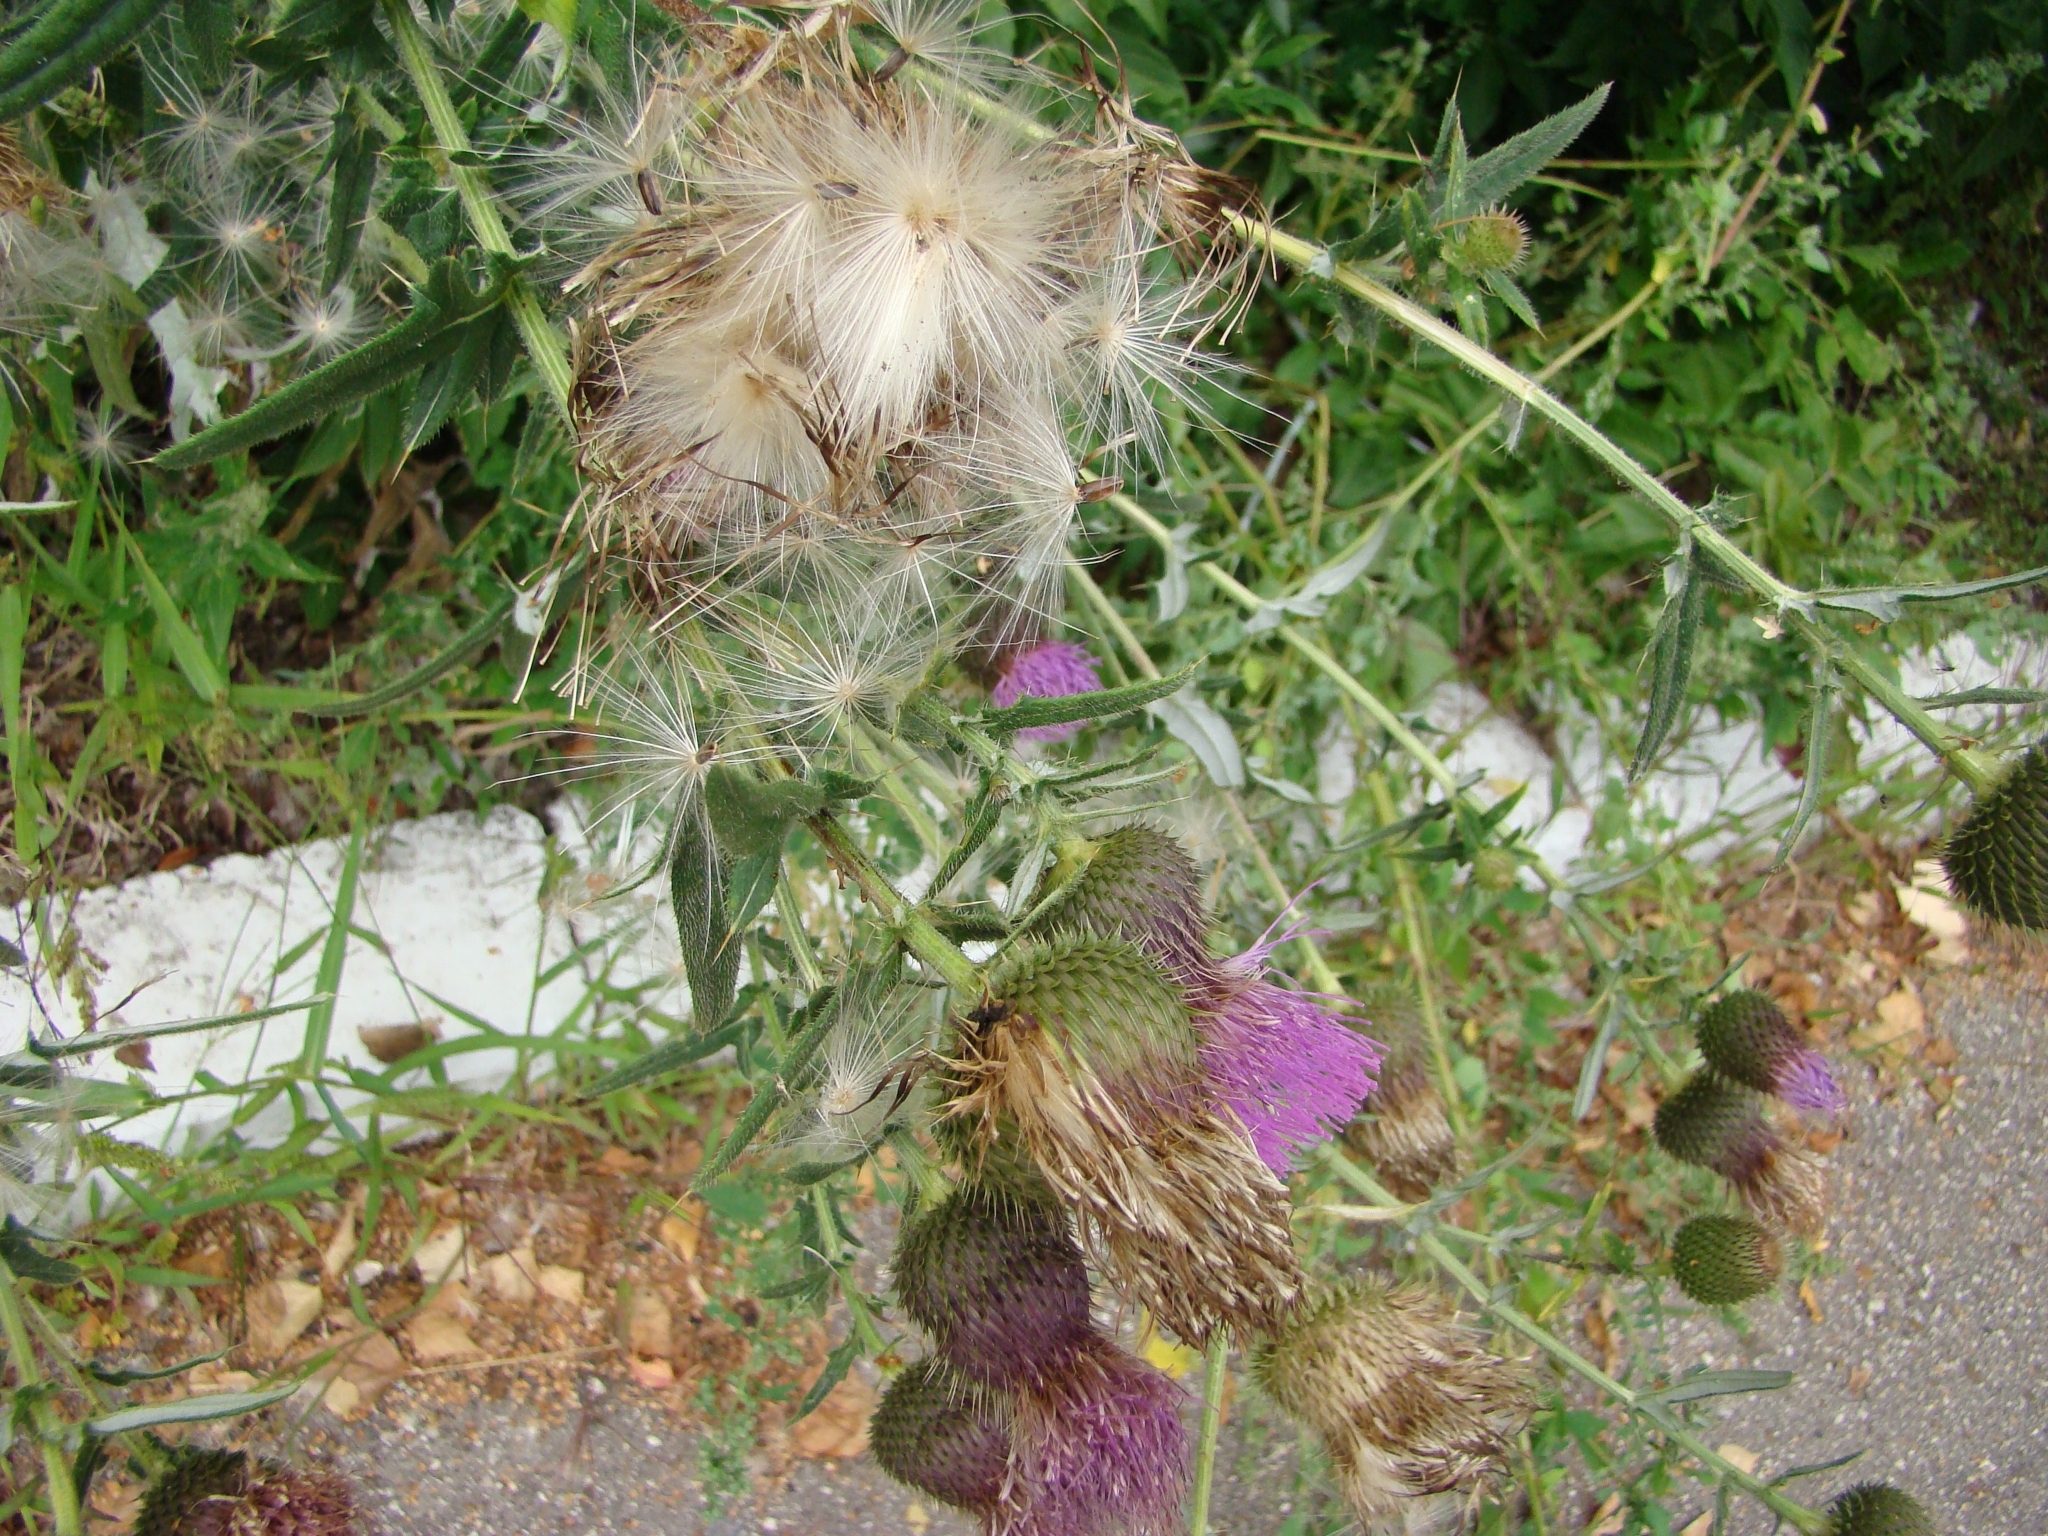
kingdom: Plantae
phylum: Tracheophyta
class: Magnoliopsida
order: Asterales
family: Asteraceae
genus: Cirsium
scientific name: Cirsium serrulatum
